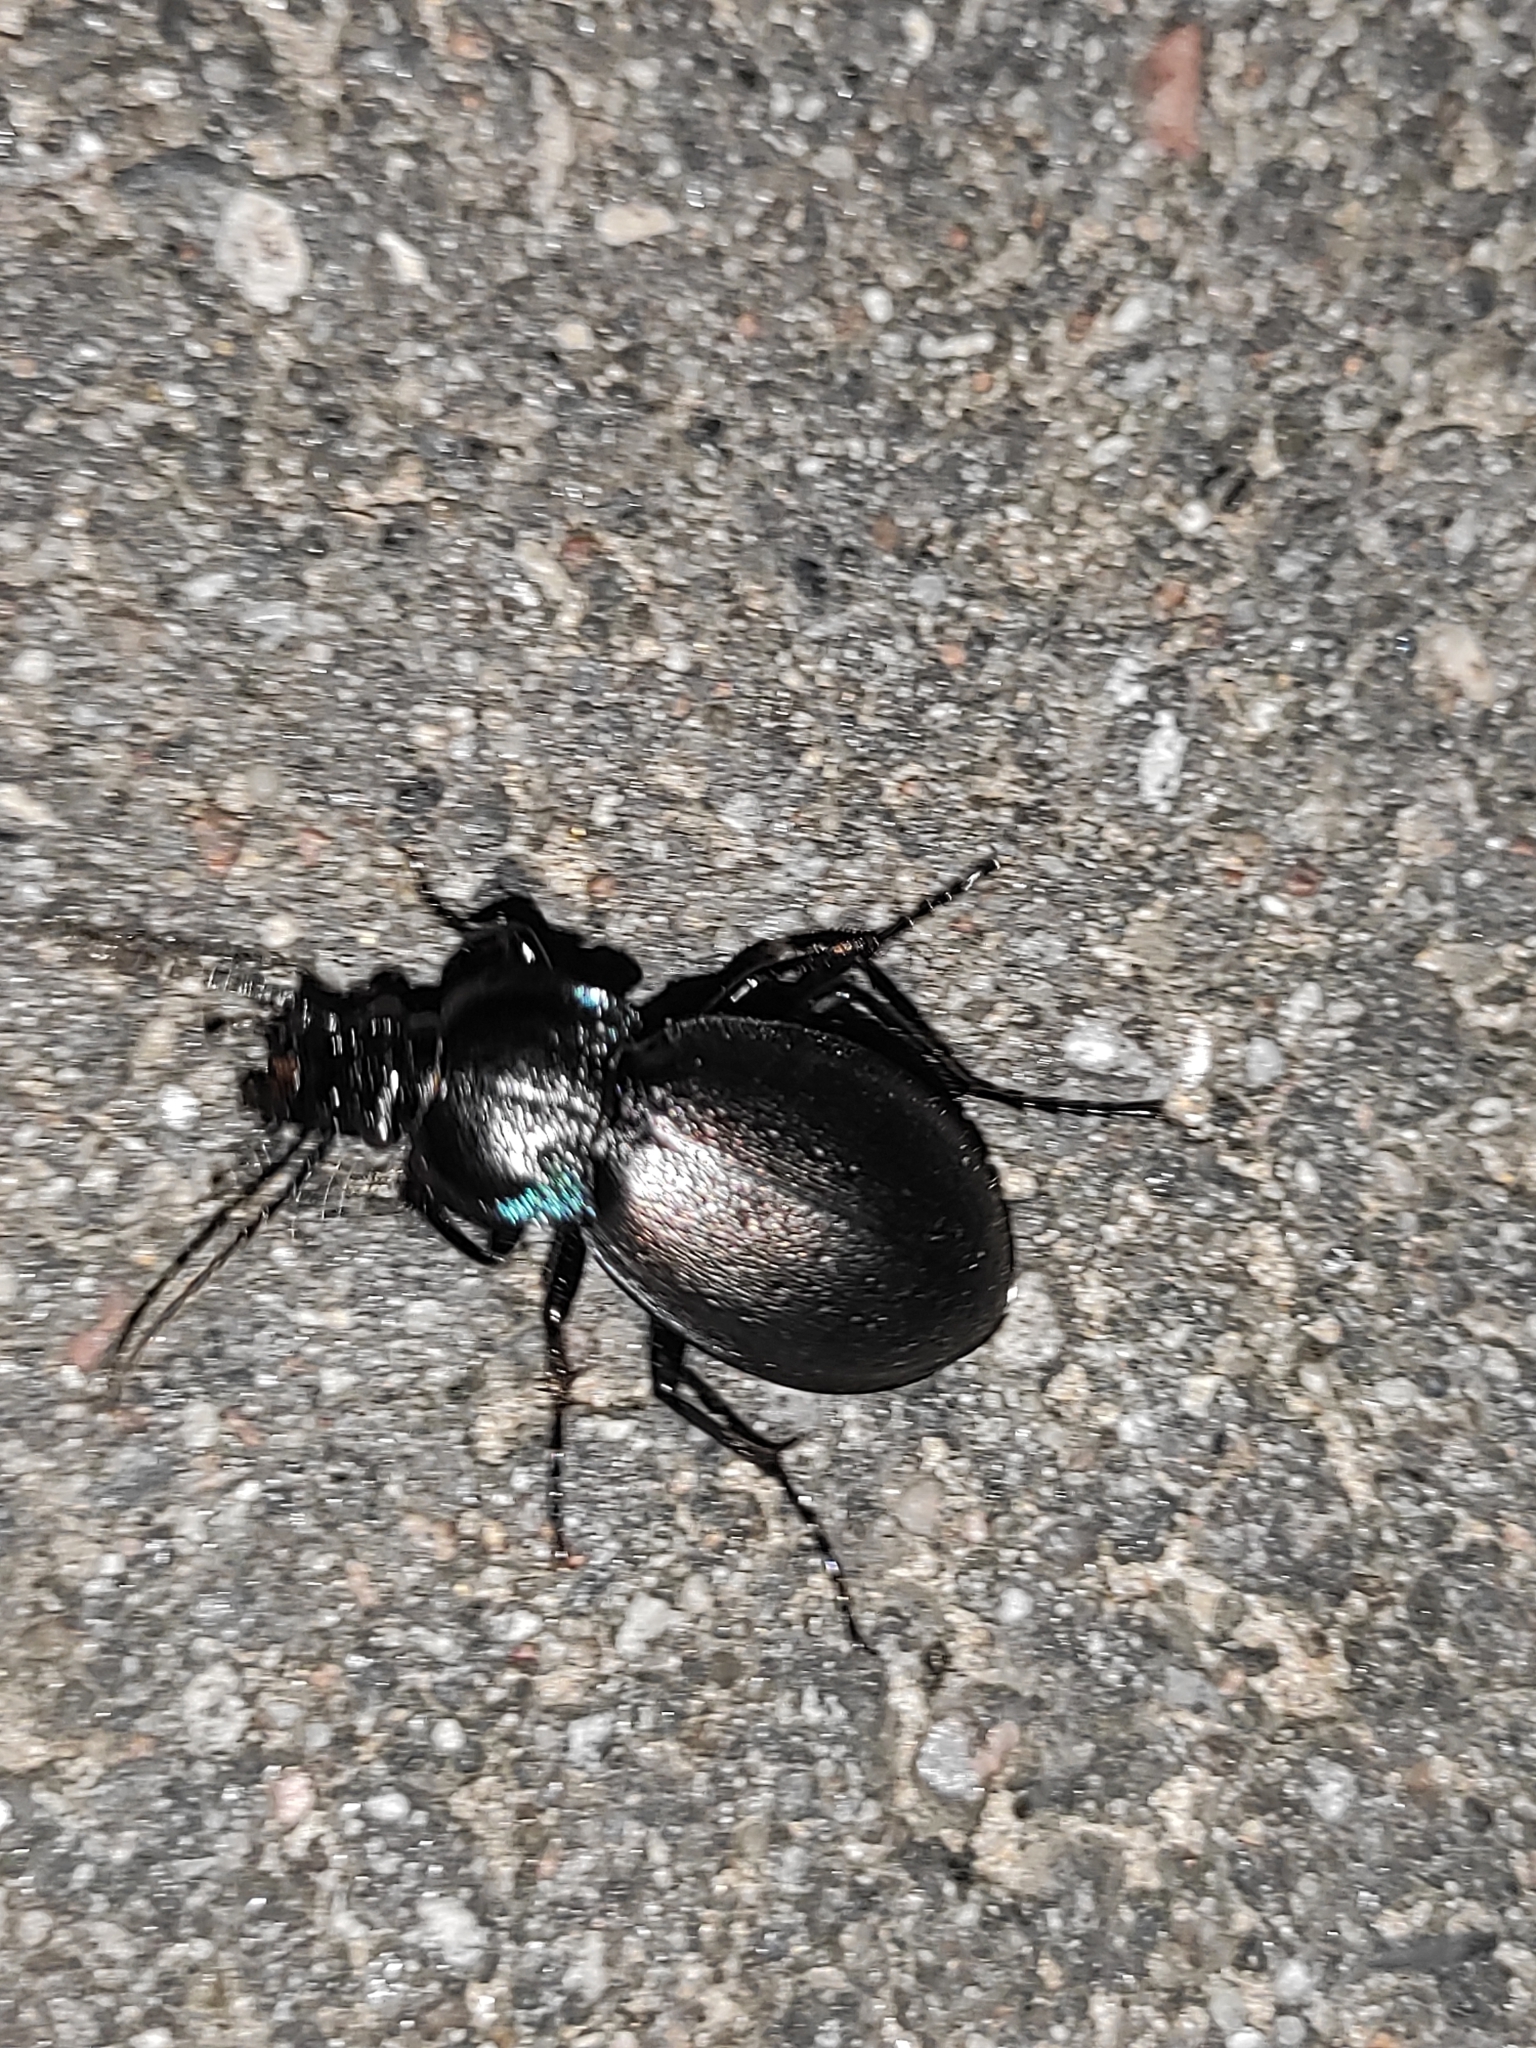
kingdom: Animalia
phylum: Arthropoda
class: Insecta
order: Coleoptera
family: Carabidae
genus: Carabus
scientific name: Carabus nemoralis
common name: European ground beetle
